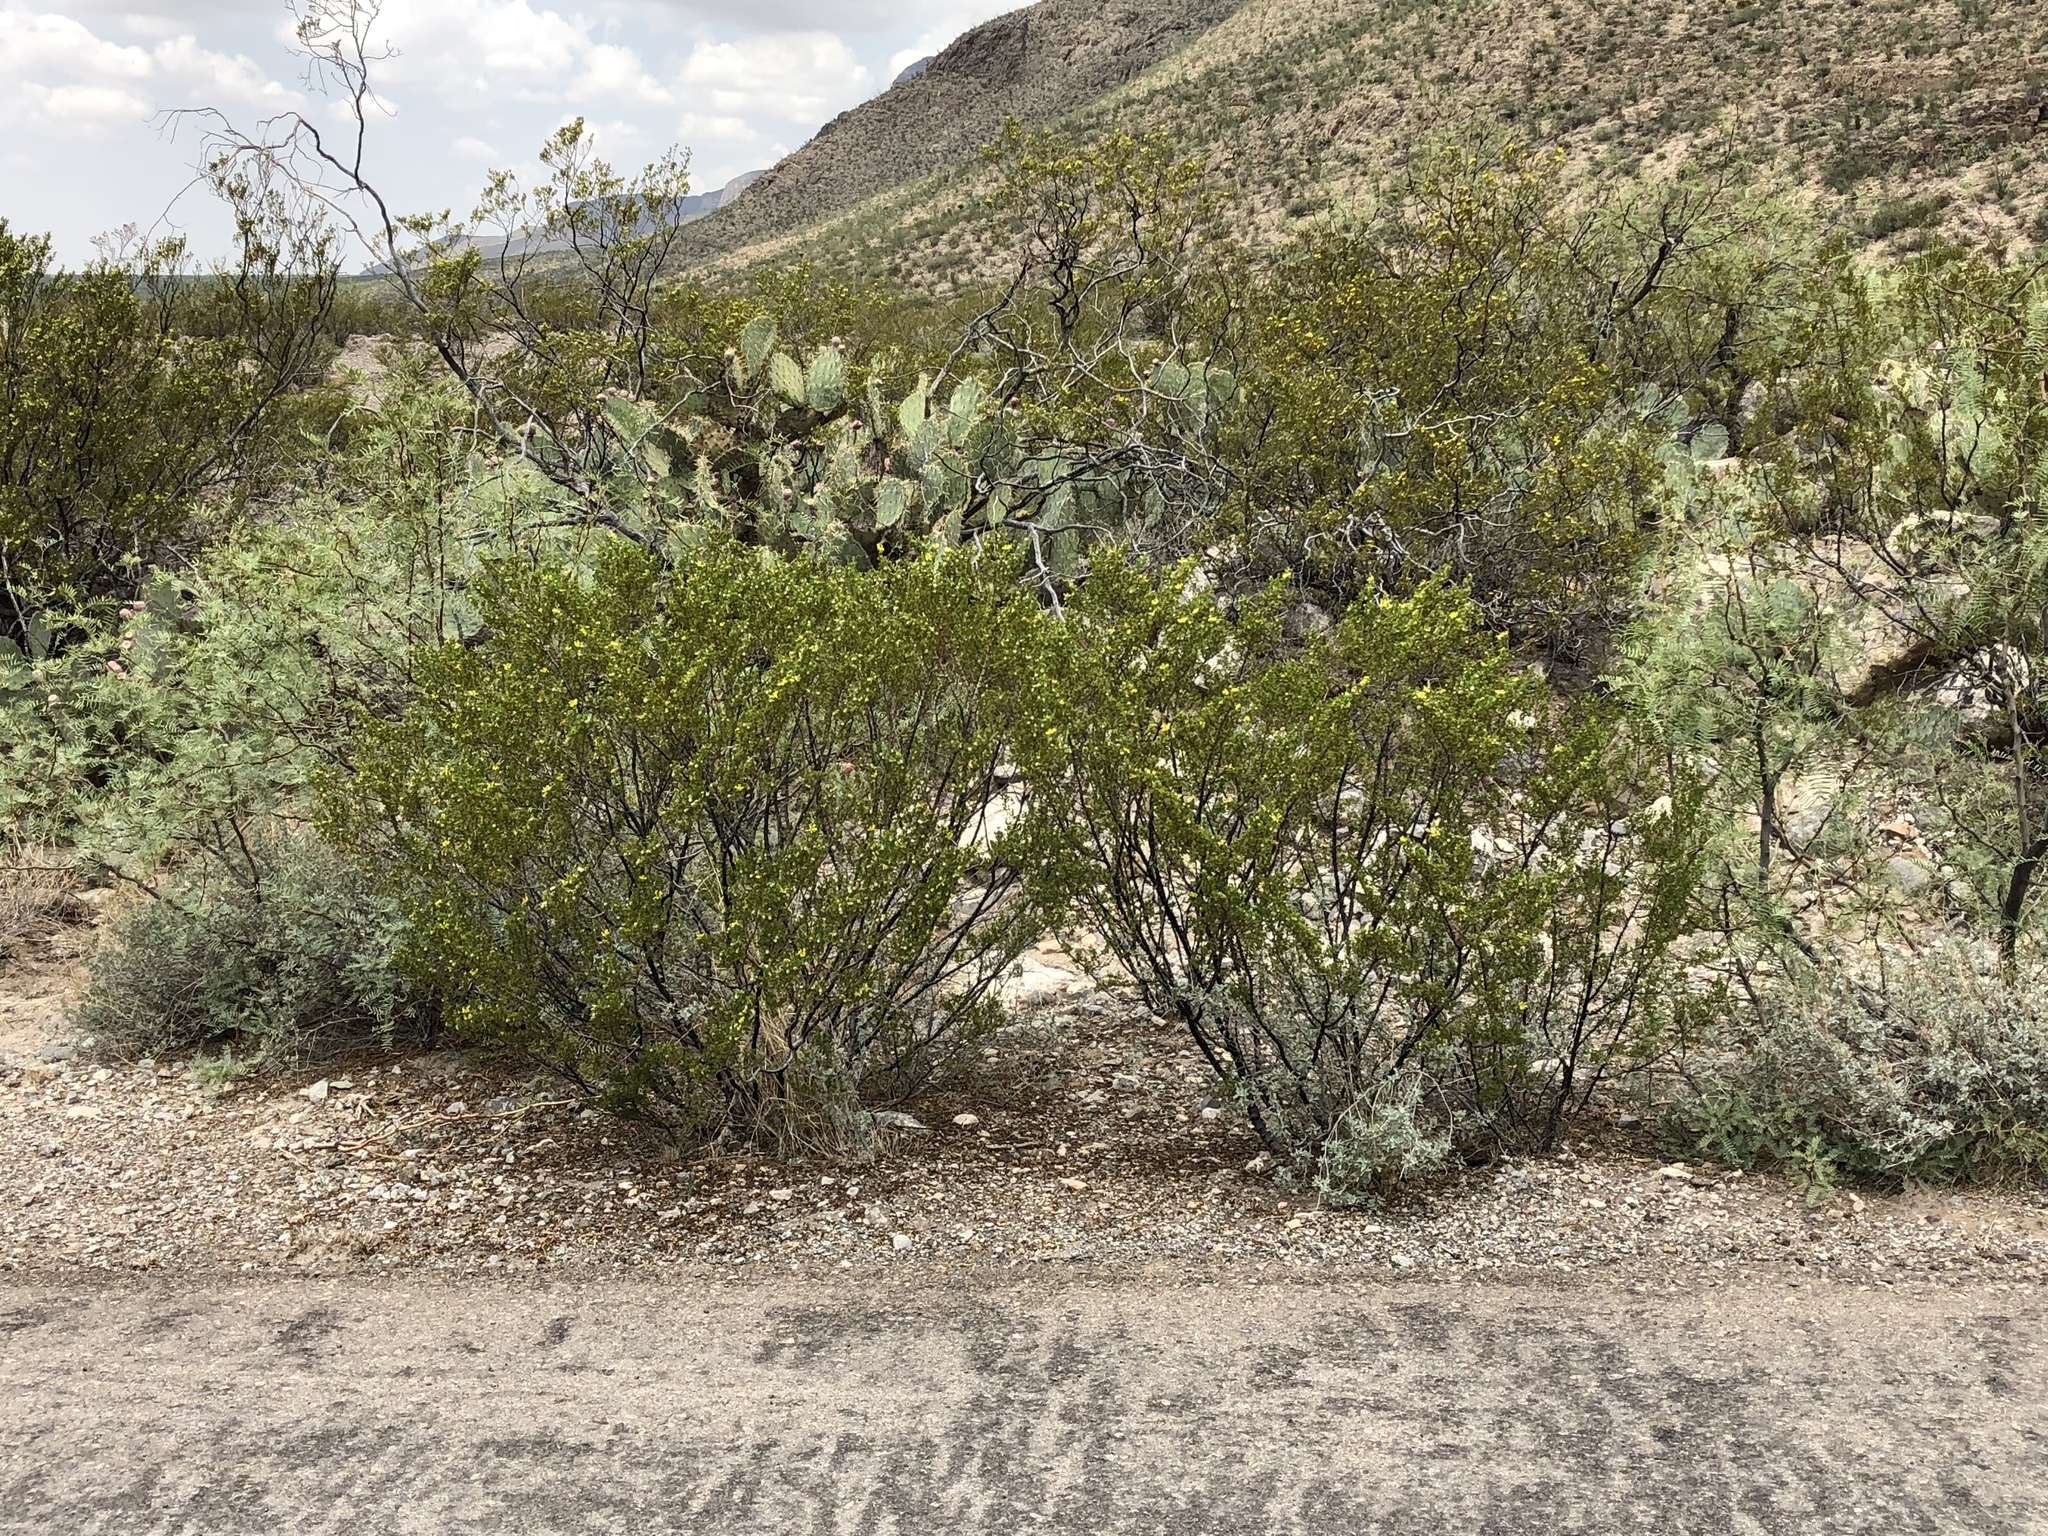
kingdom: Plantae
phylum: Tracheophyta
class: Magnoliopsida
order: Zygophyllales
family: Zygophyllaceae
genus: Larrea
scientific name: Larrea tridentata
